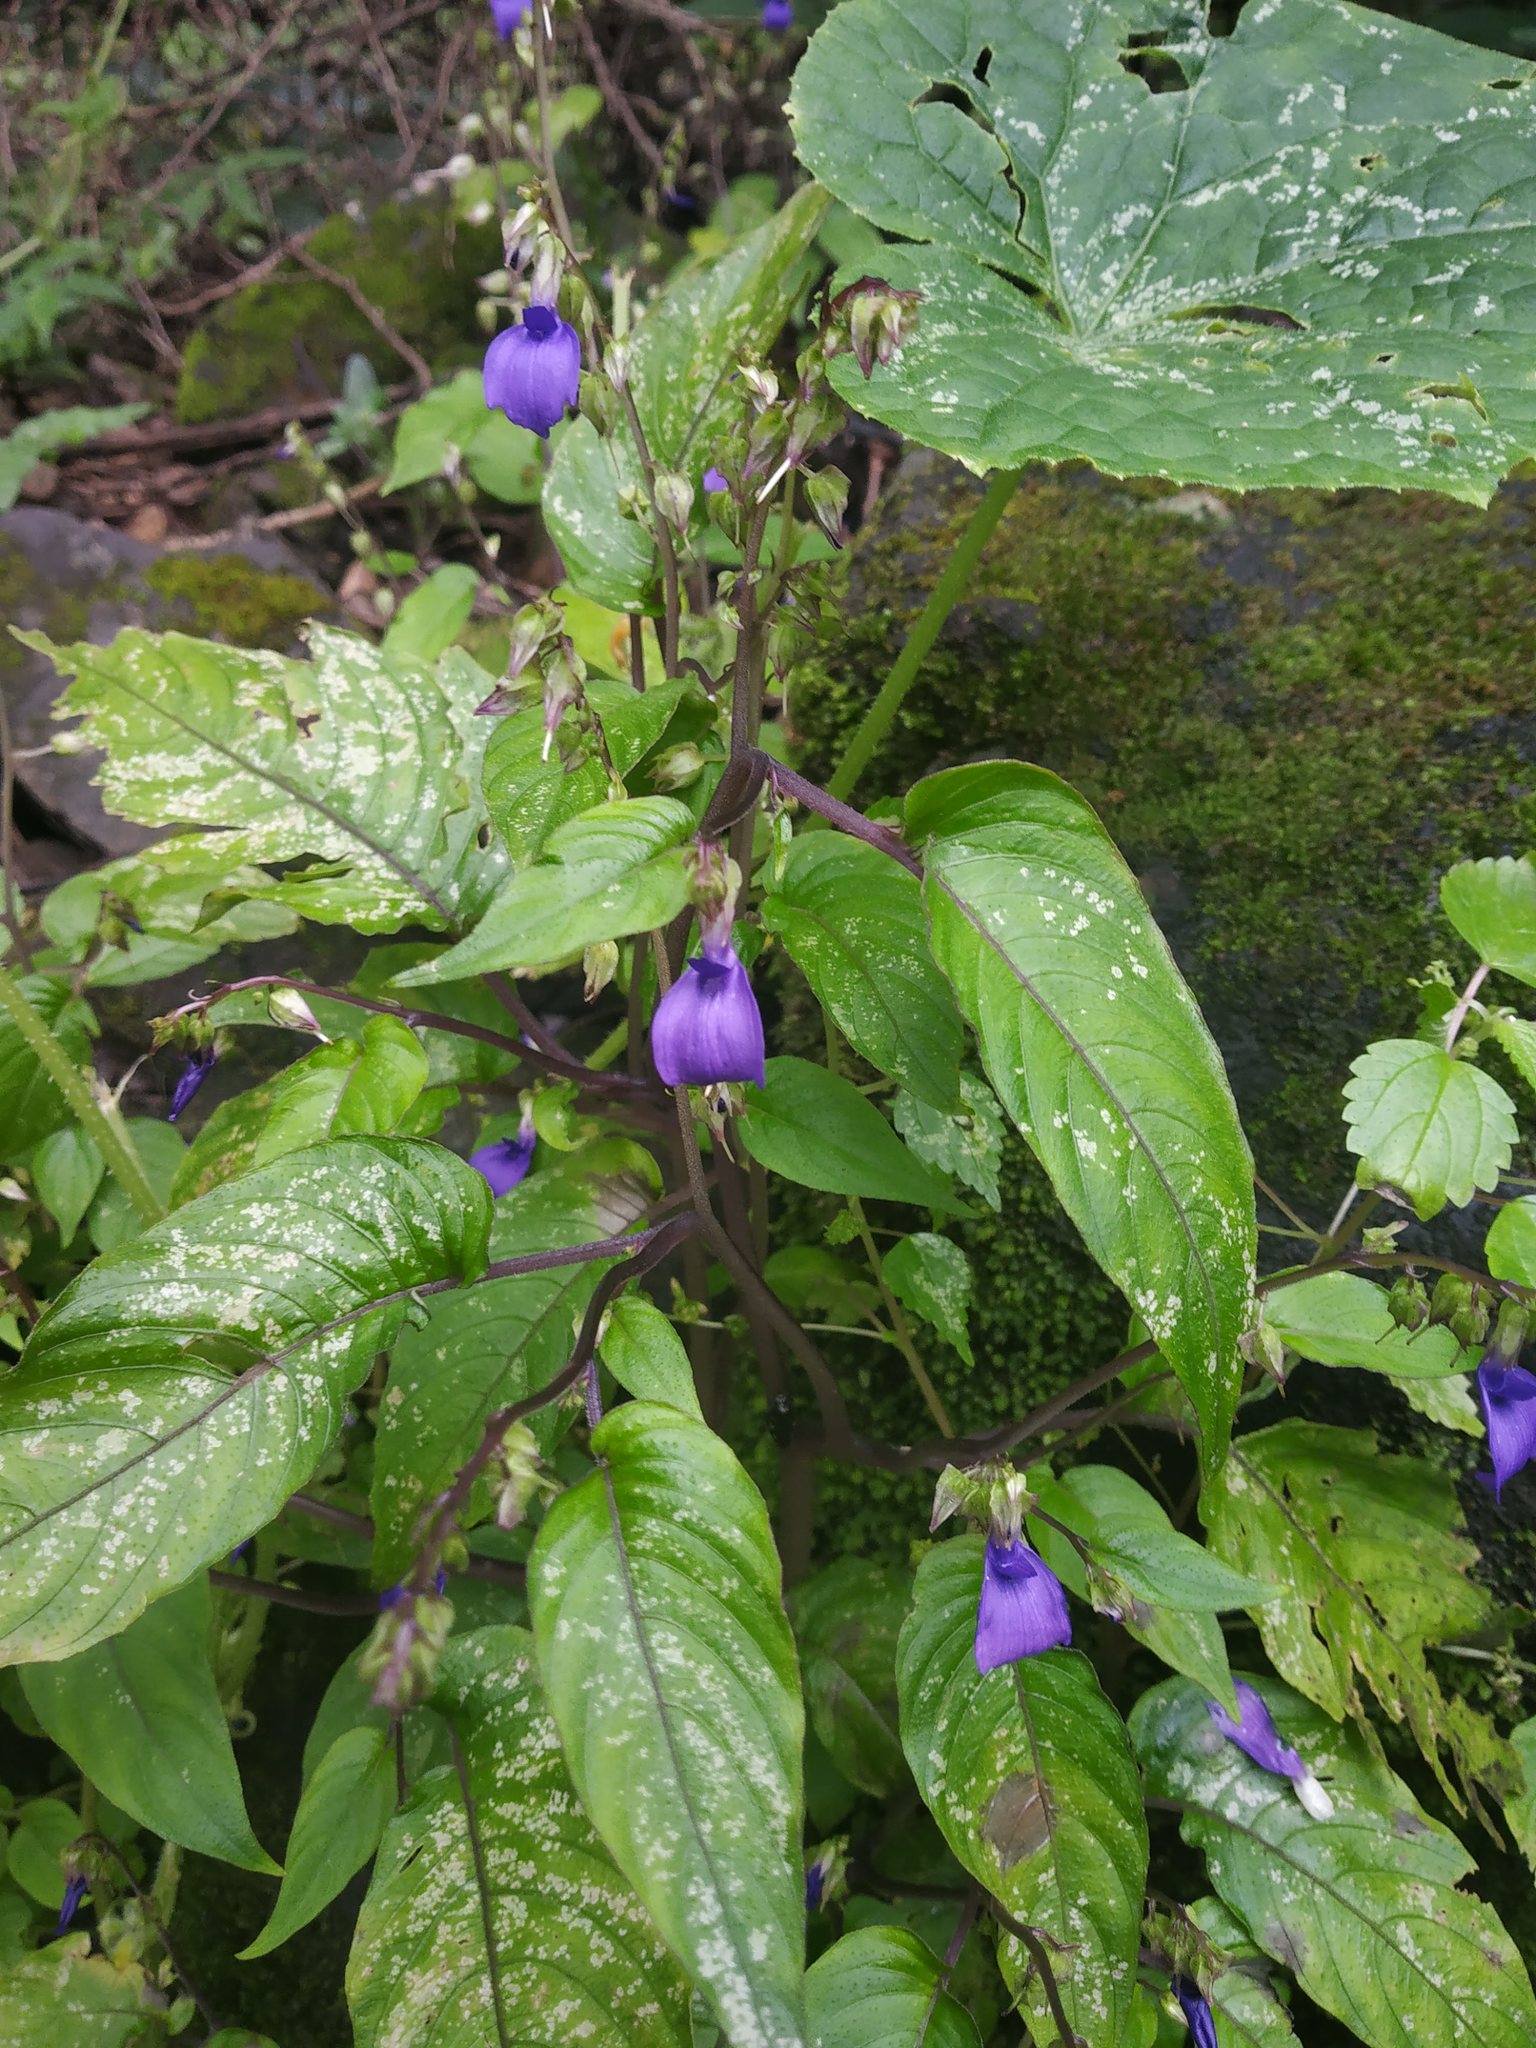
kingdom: Plantae
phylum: Tracheophyta
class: Magnoliopsida
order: Lamiales
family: Gesneriaceae
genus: Rhynchoglossum
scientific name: Rhynchoglossum notonianum
